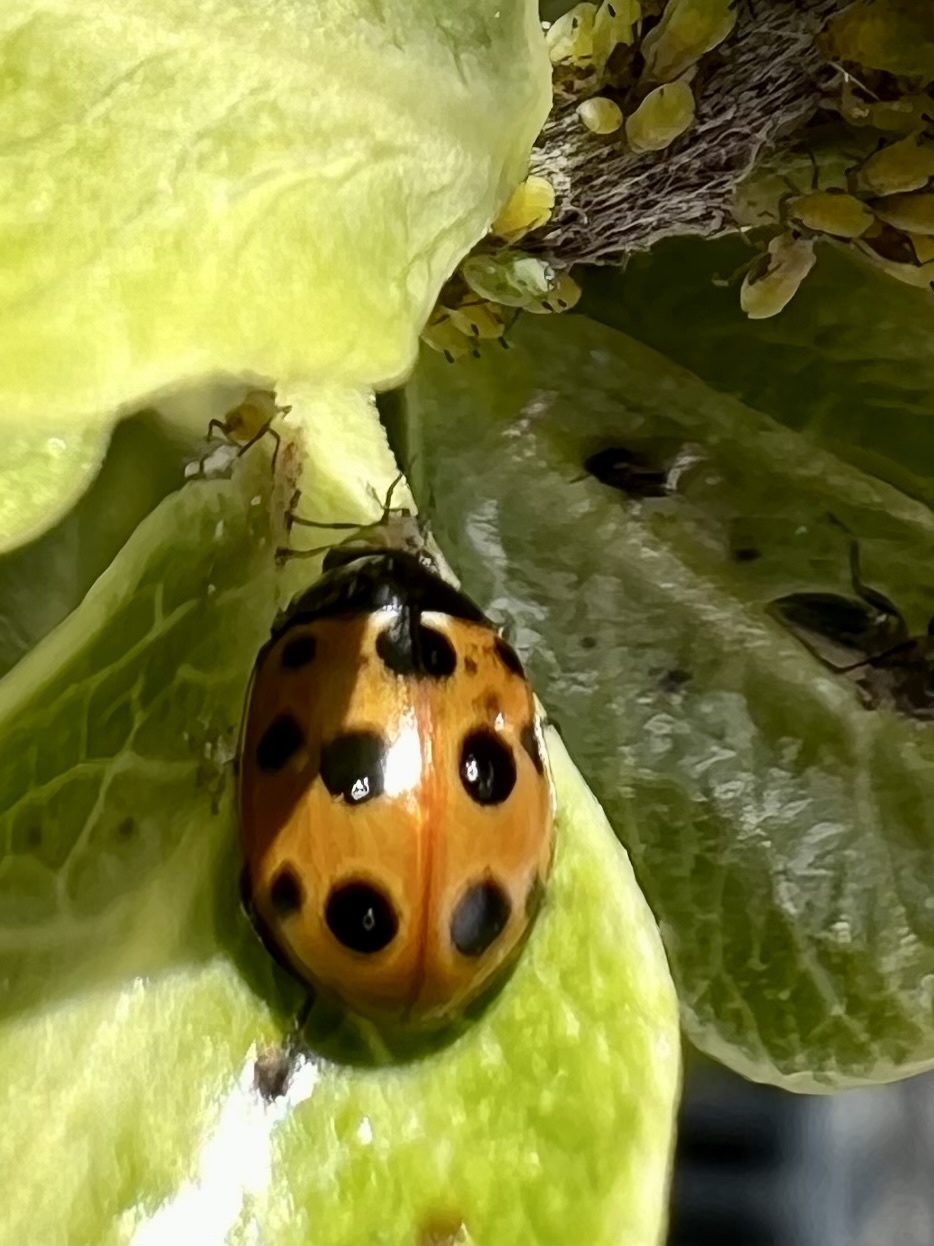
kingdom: Animalia
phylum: Arthropoda
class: Insecta
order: Coleoptera
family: Coccinellidae
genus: Coccinella
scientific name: Coccinella undecimpunctata
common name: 11-spot ladybird
